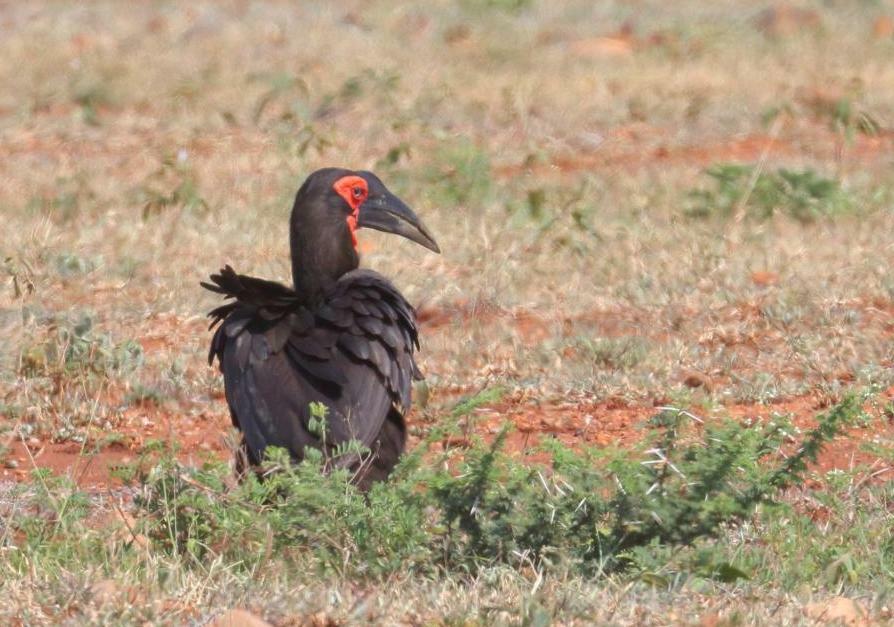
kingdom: Animalia
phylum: Chordata
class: Aves
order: Bucerotiformes
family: Bucorvidae
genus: Bucorvus
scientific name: Bucorvus leadbeateri
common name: Southern ground-hornbill
